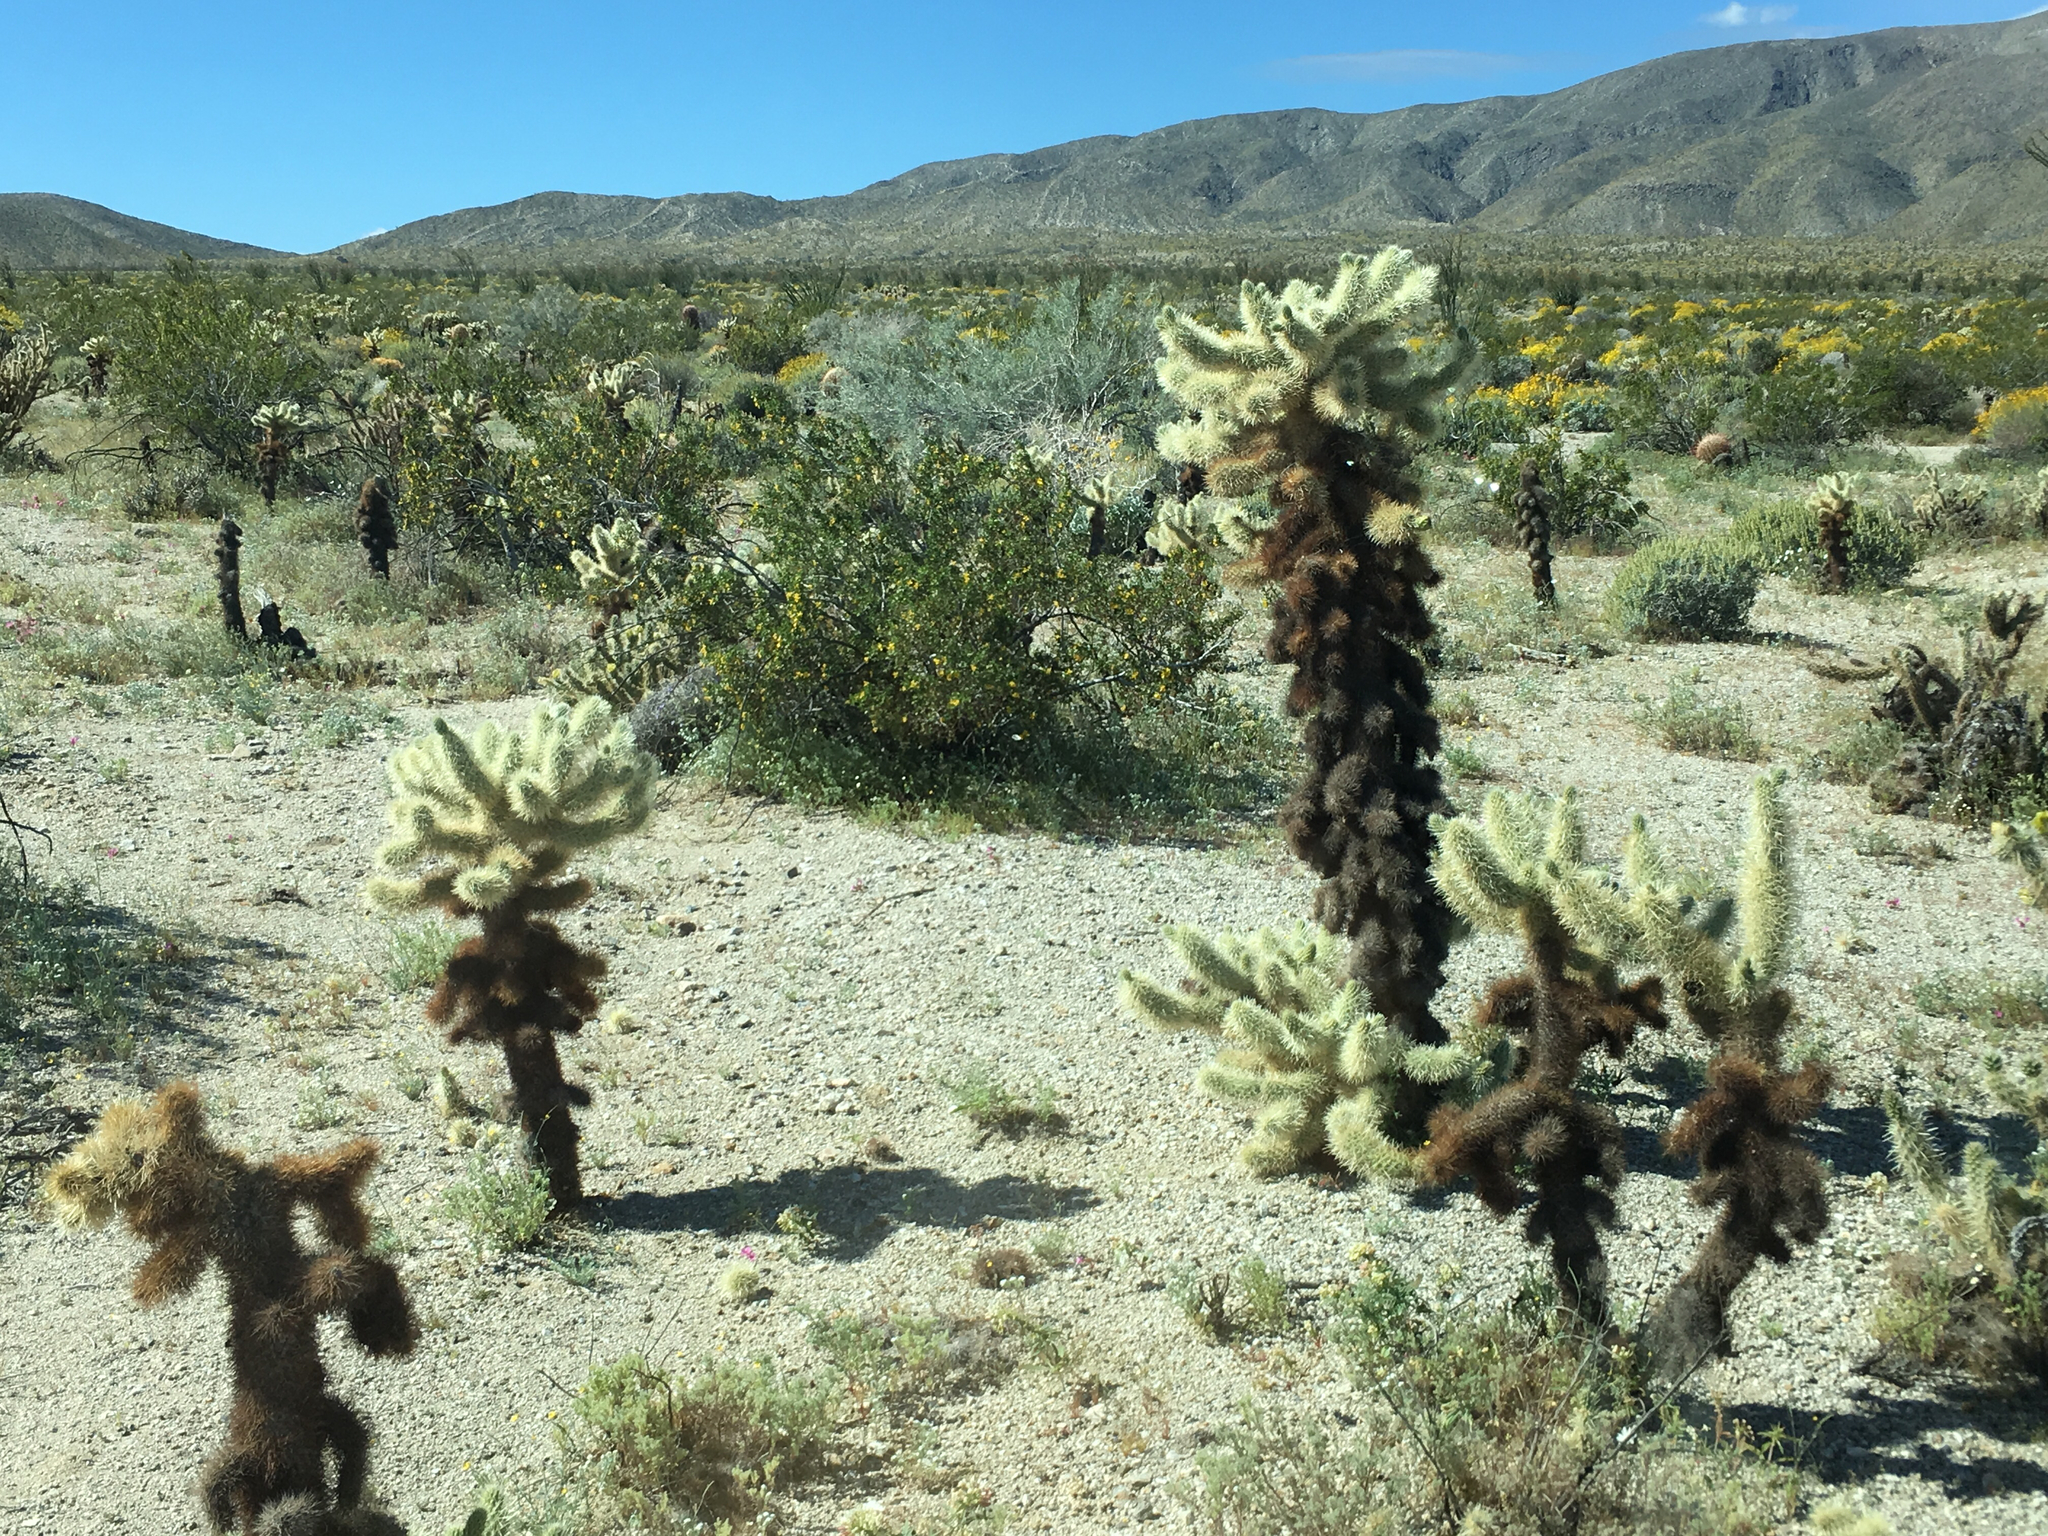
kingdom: Plantae
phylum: Tracheophyta
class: Magnoliopsida
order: Caryophyllales
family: Cactaceae
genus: Cylindropuntia
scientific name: Cylindropuntia fosbergii
